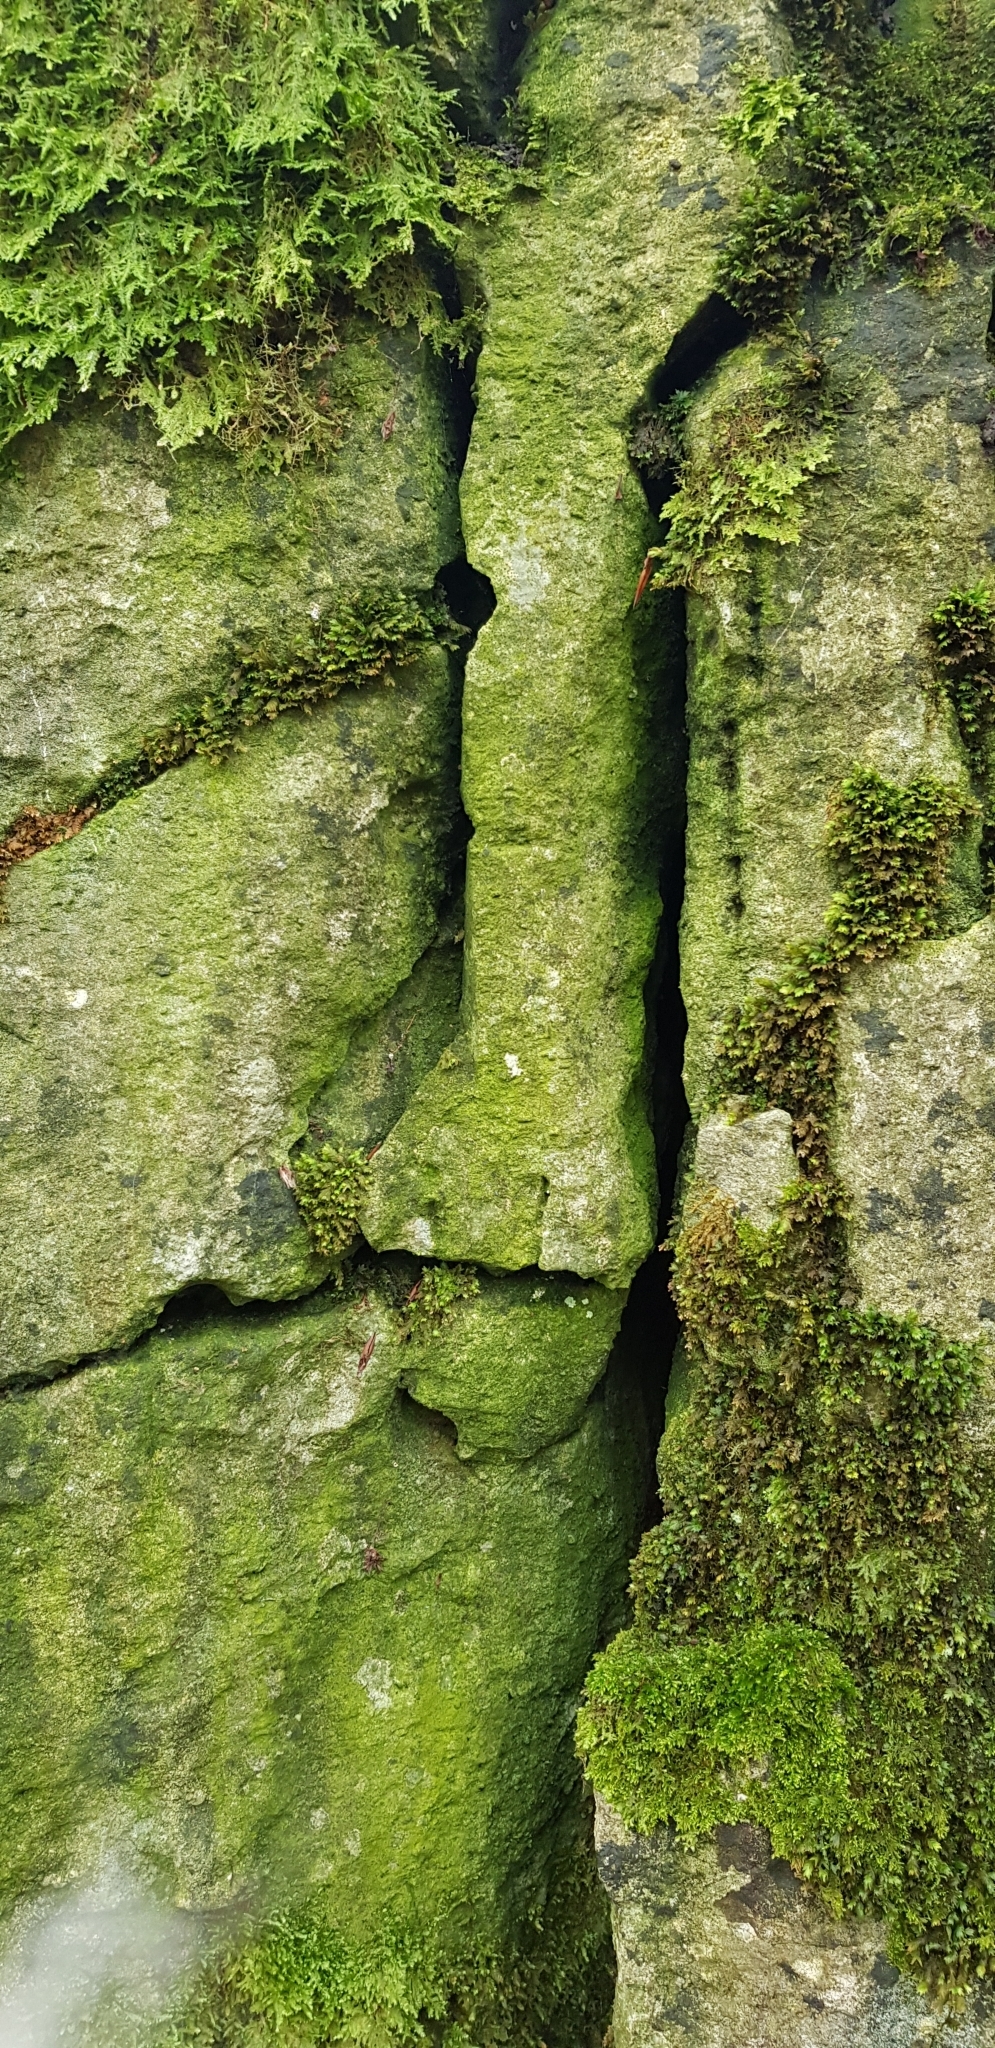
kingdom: Plantae
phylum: Bryophyta
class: Bryopsida
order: Dicranales
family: Fissidentaceae
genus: Fissidens
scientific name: Fissidens dubius
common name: Rock pocket moss
